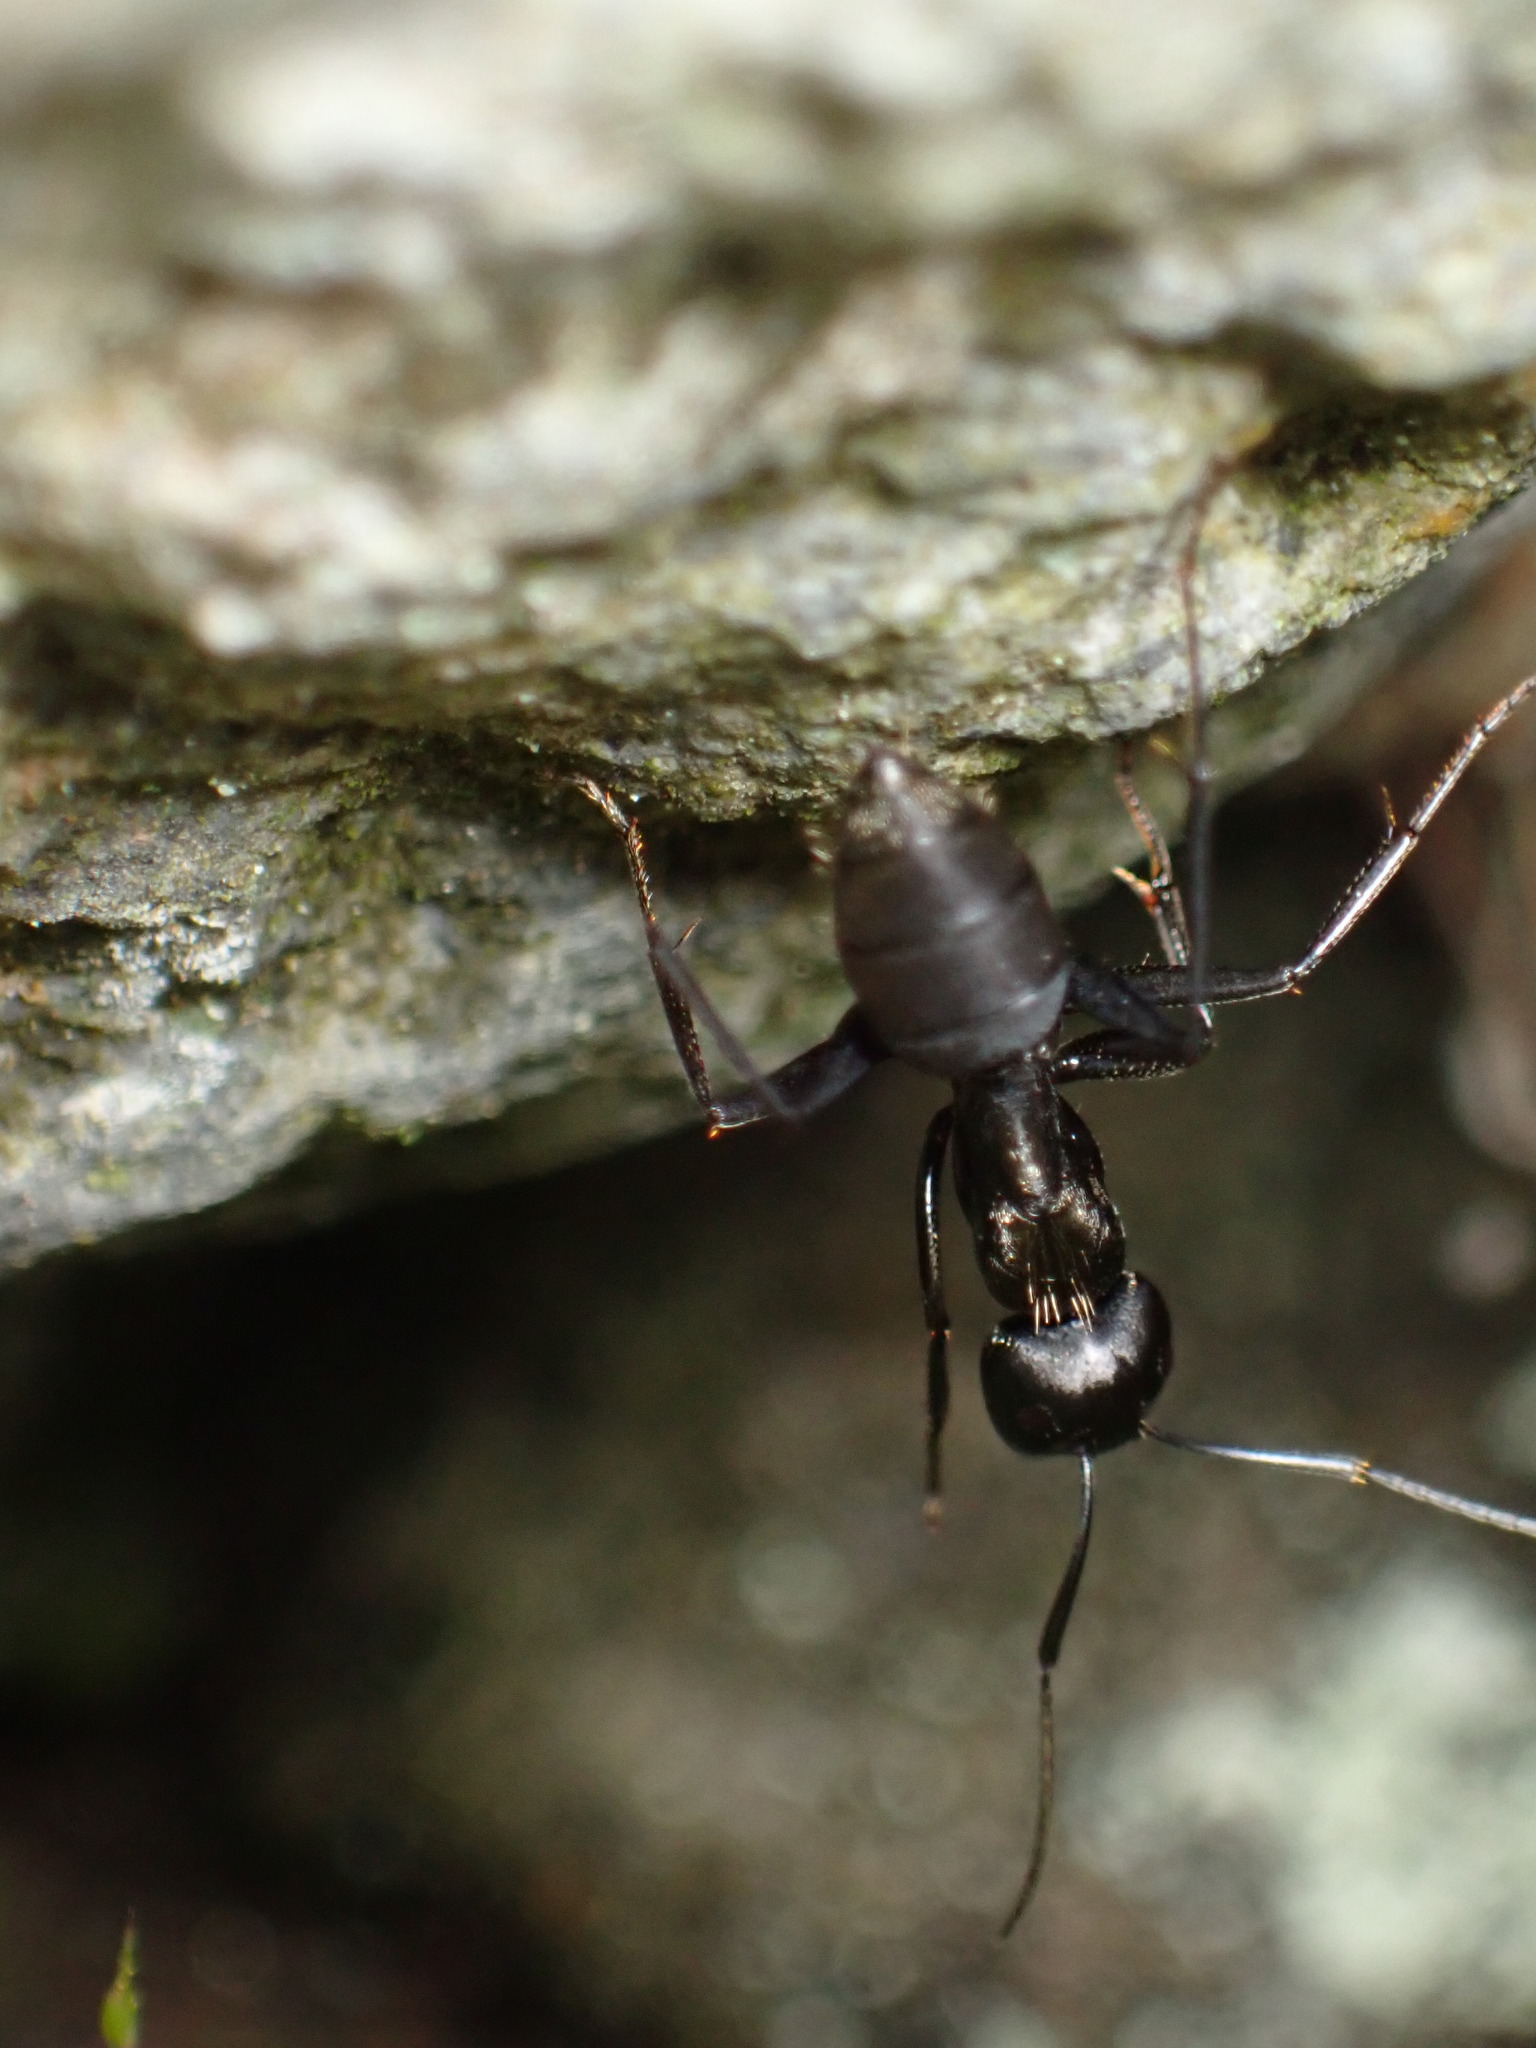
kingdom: Animalia
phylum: Arthropoda
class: Insecta
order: Hymenoptera
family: Formicidae
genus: Camponotus
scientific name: Camponotus japonicus
